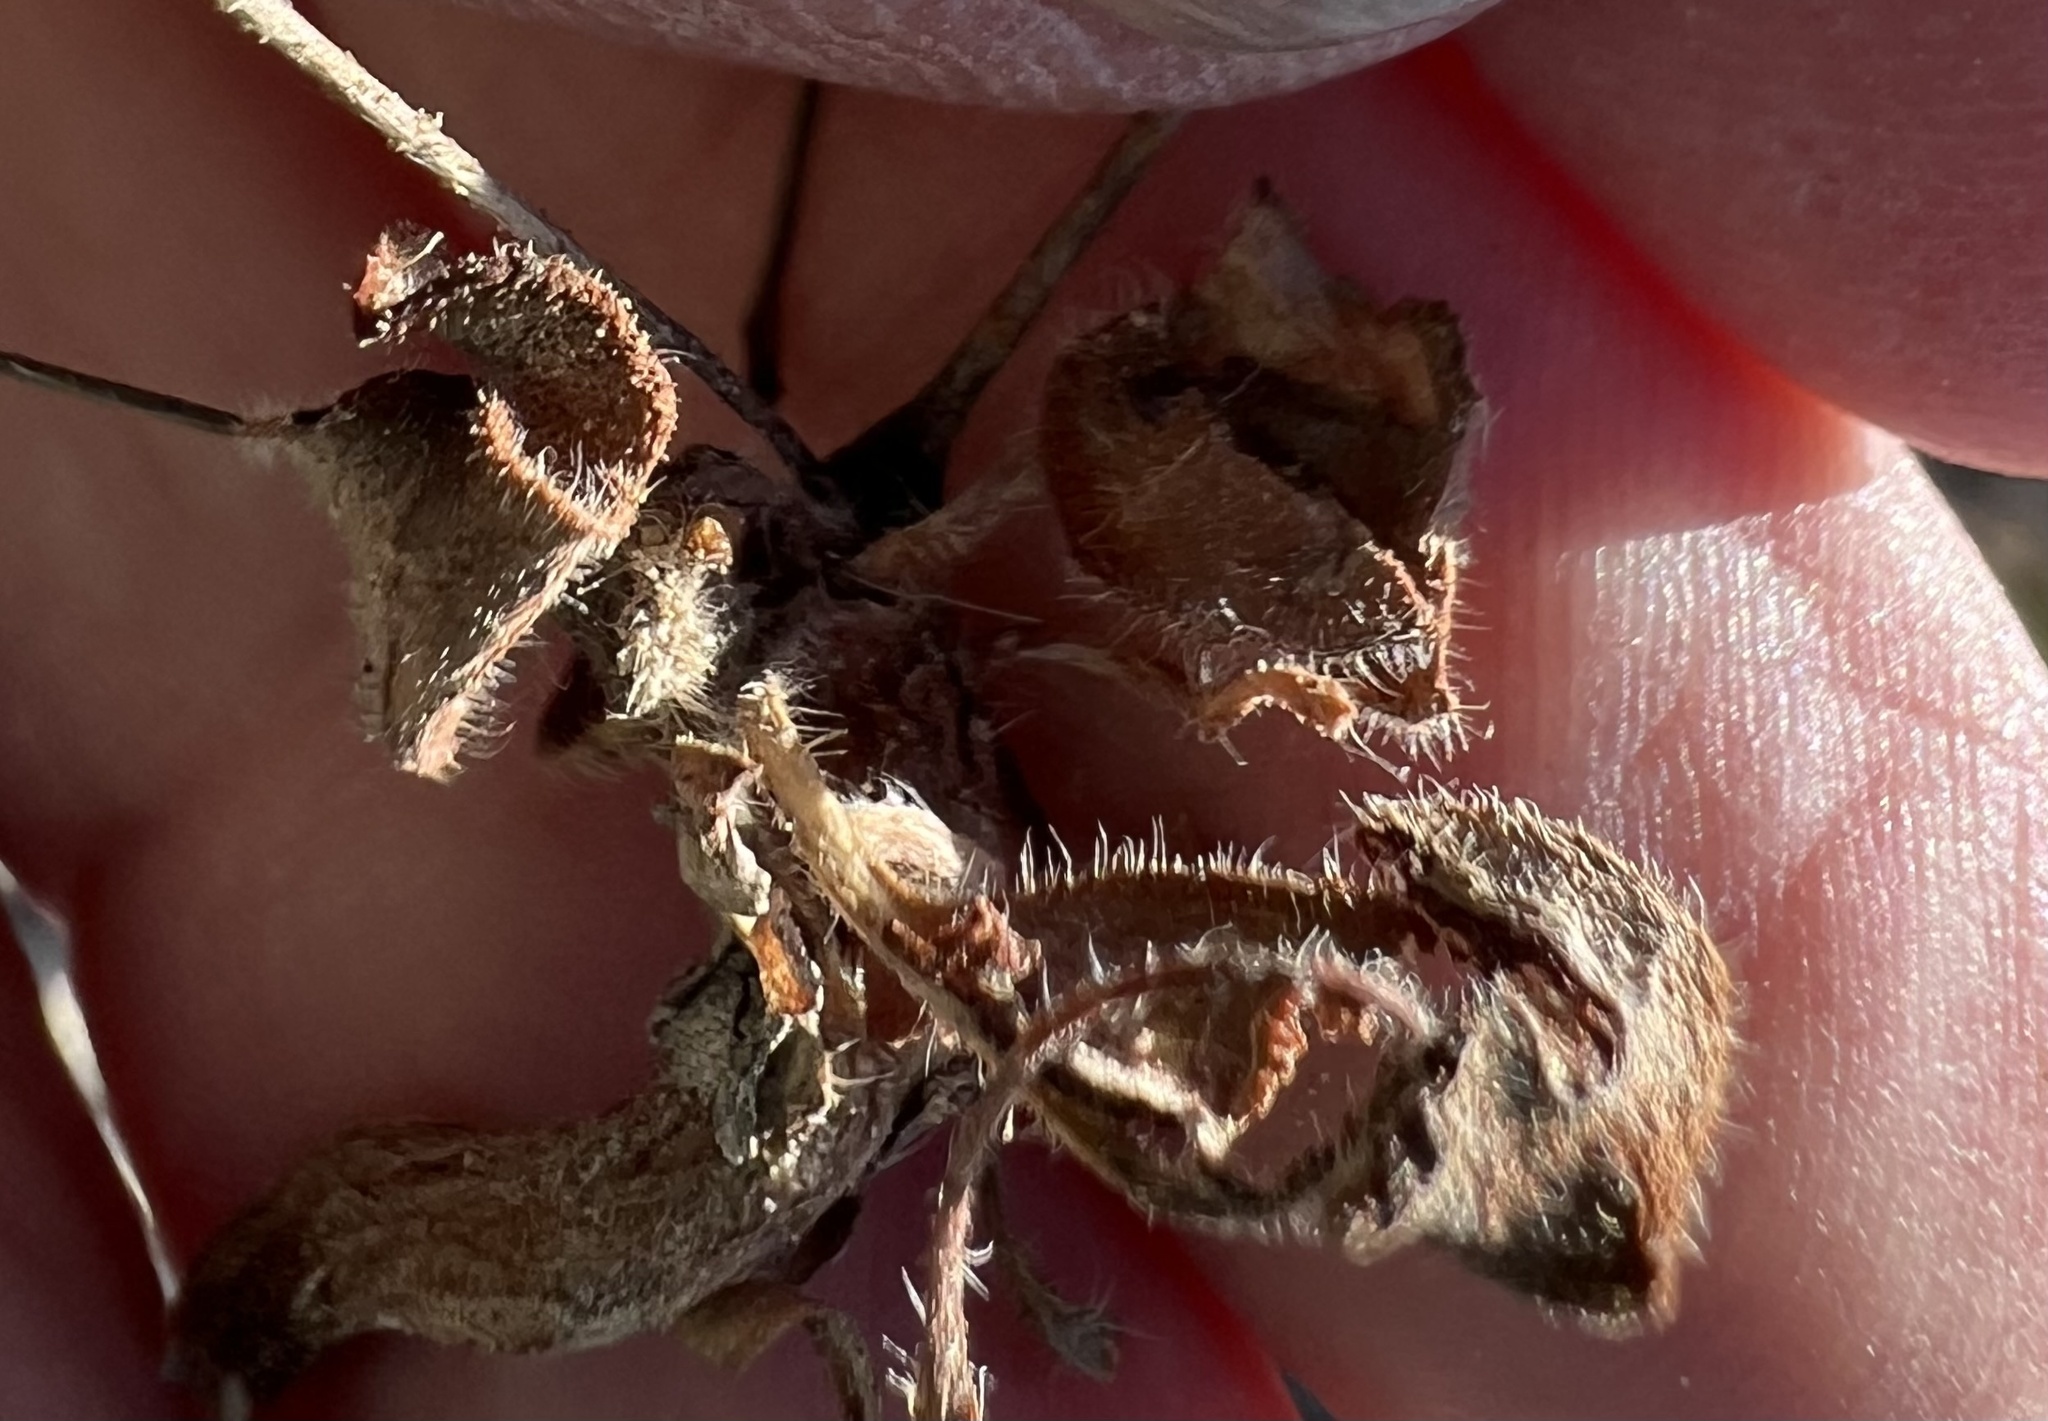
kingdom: Plantae
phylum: Tracheophyta
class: Magnoliopsida
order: Caryophyllales
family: Polygonaceae
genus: Eriogonum
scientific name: Eriogonum glandulosum
